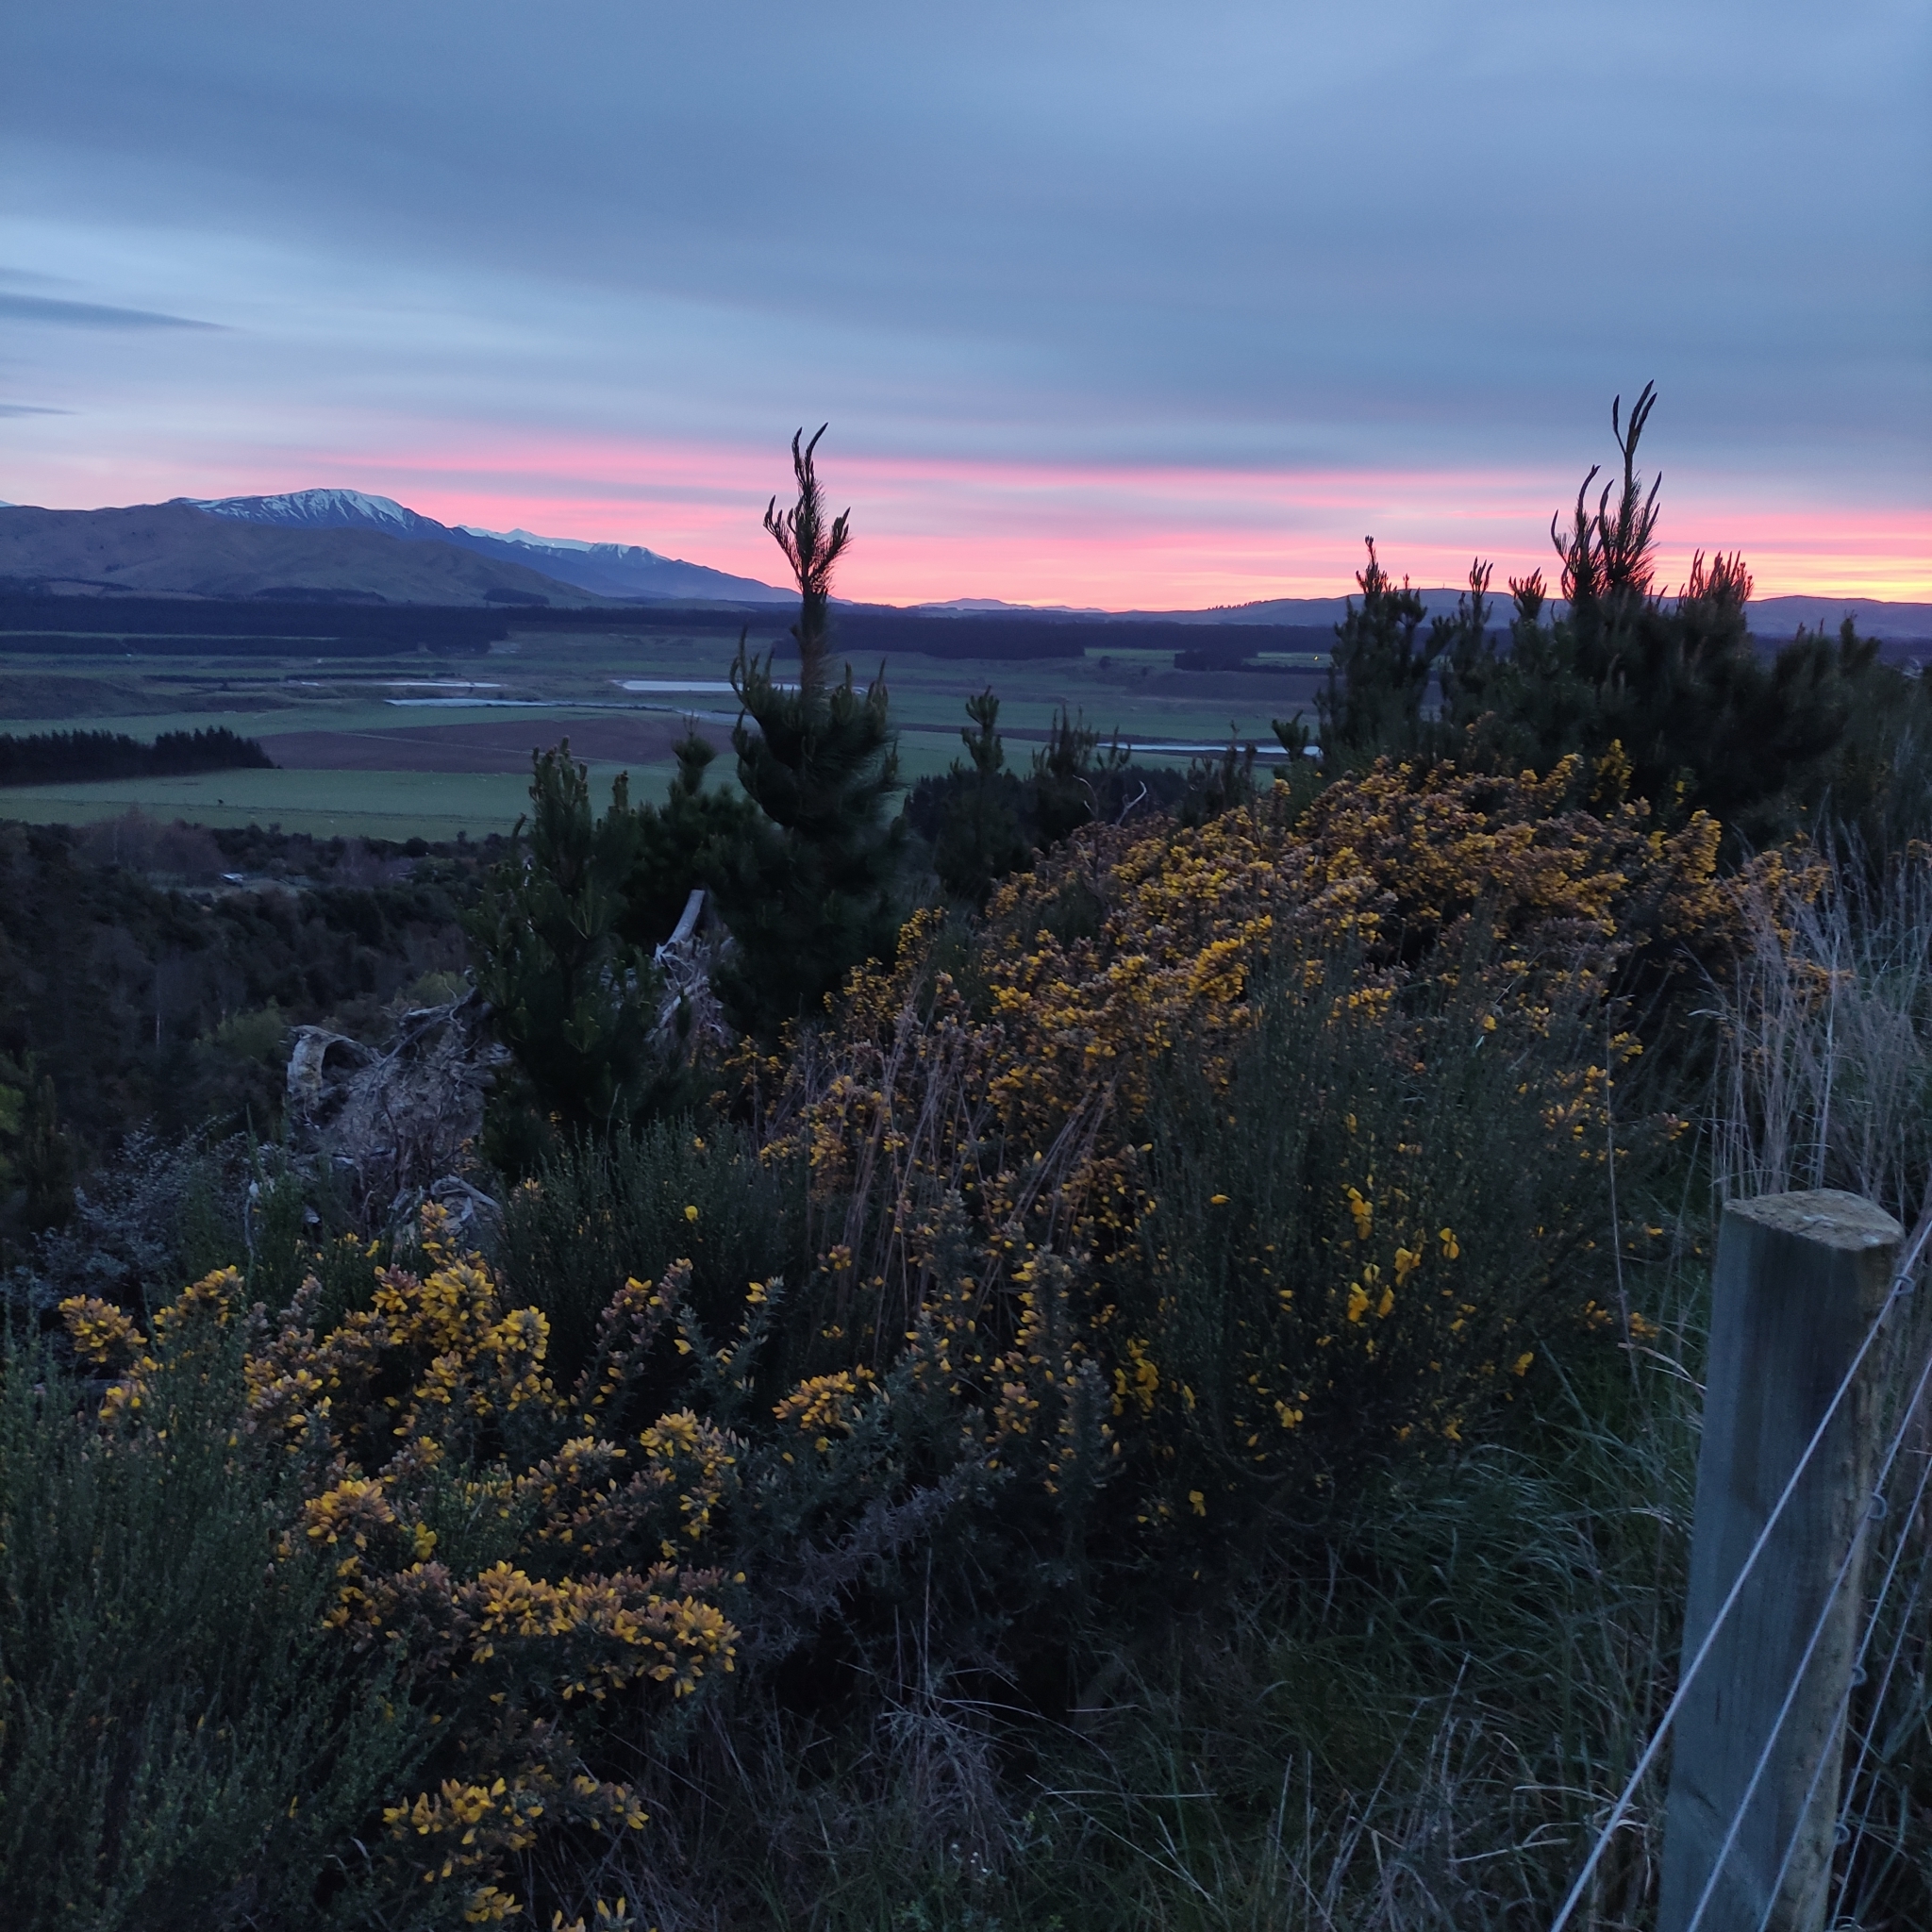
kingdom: Plantae
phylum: Tracheophyta
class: Magnoliopsida
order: Fabales
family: Fabaceae
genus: Ulex
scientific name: Ulex europaeus
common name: Common gorse
